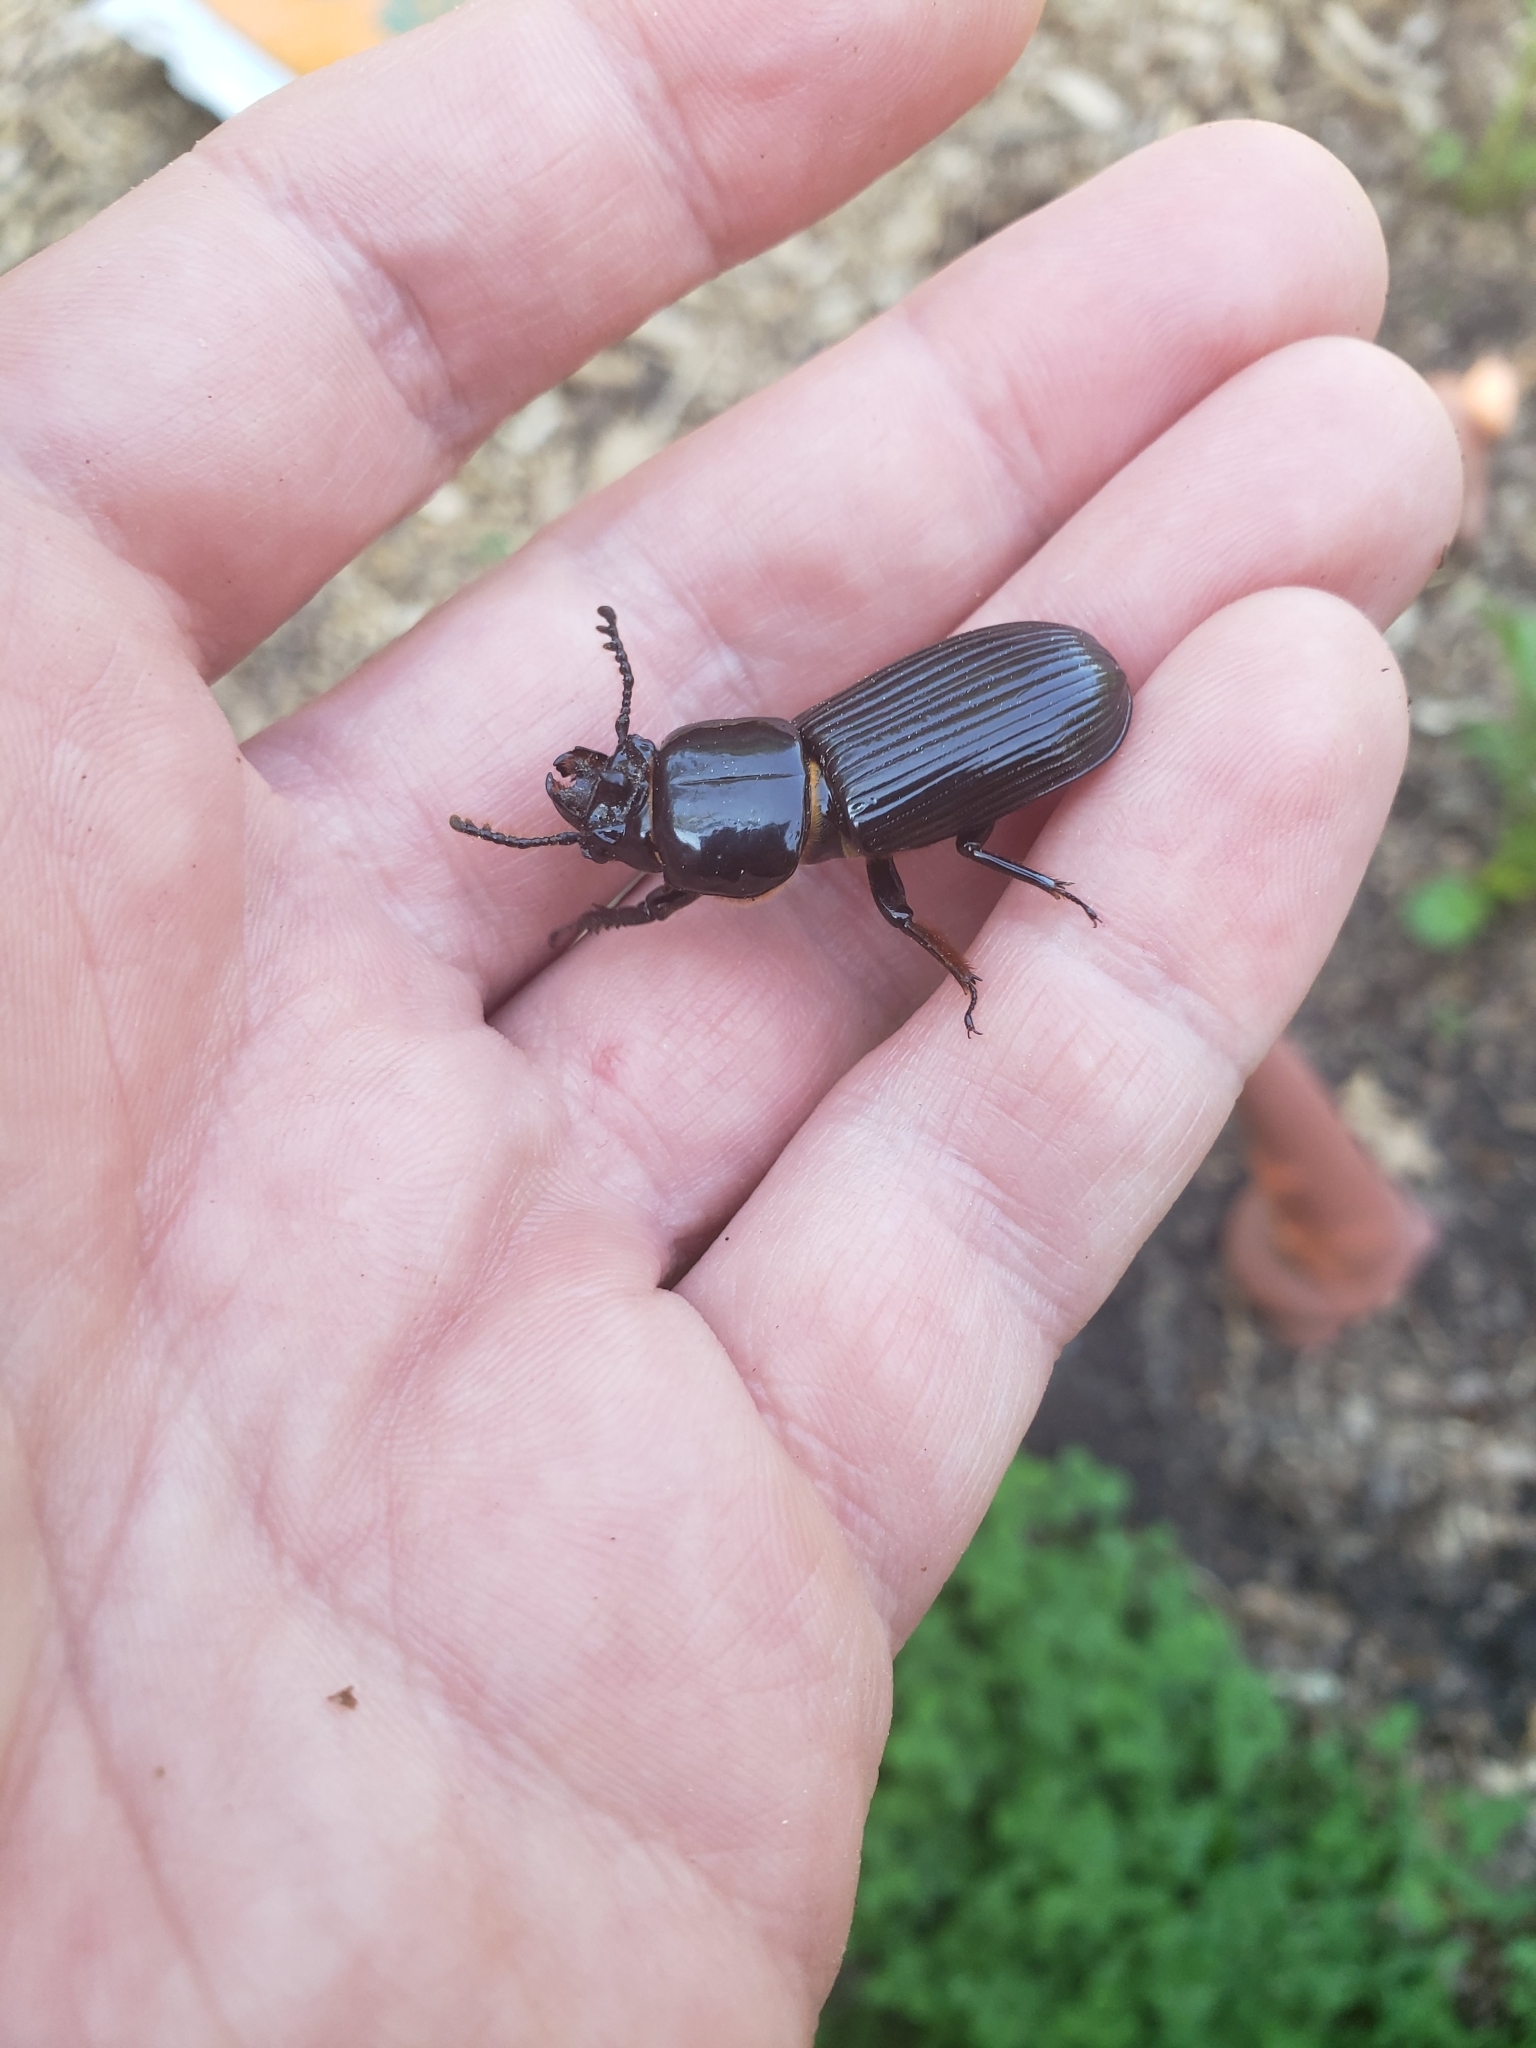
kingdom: Animalia
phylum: Arthropoda
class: Insecta
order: Coleoptera
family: Passalidae
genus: Odontotaenius
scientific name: Odontotaenius disjunctus
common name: Patent leather beetle
